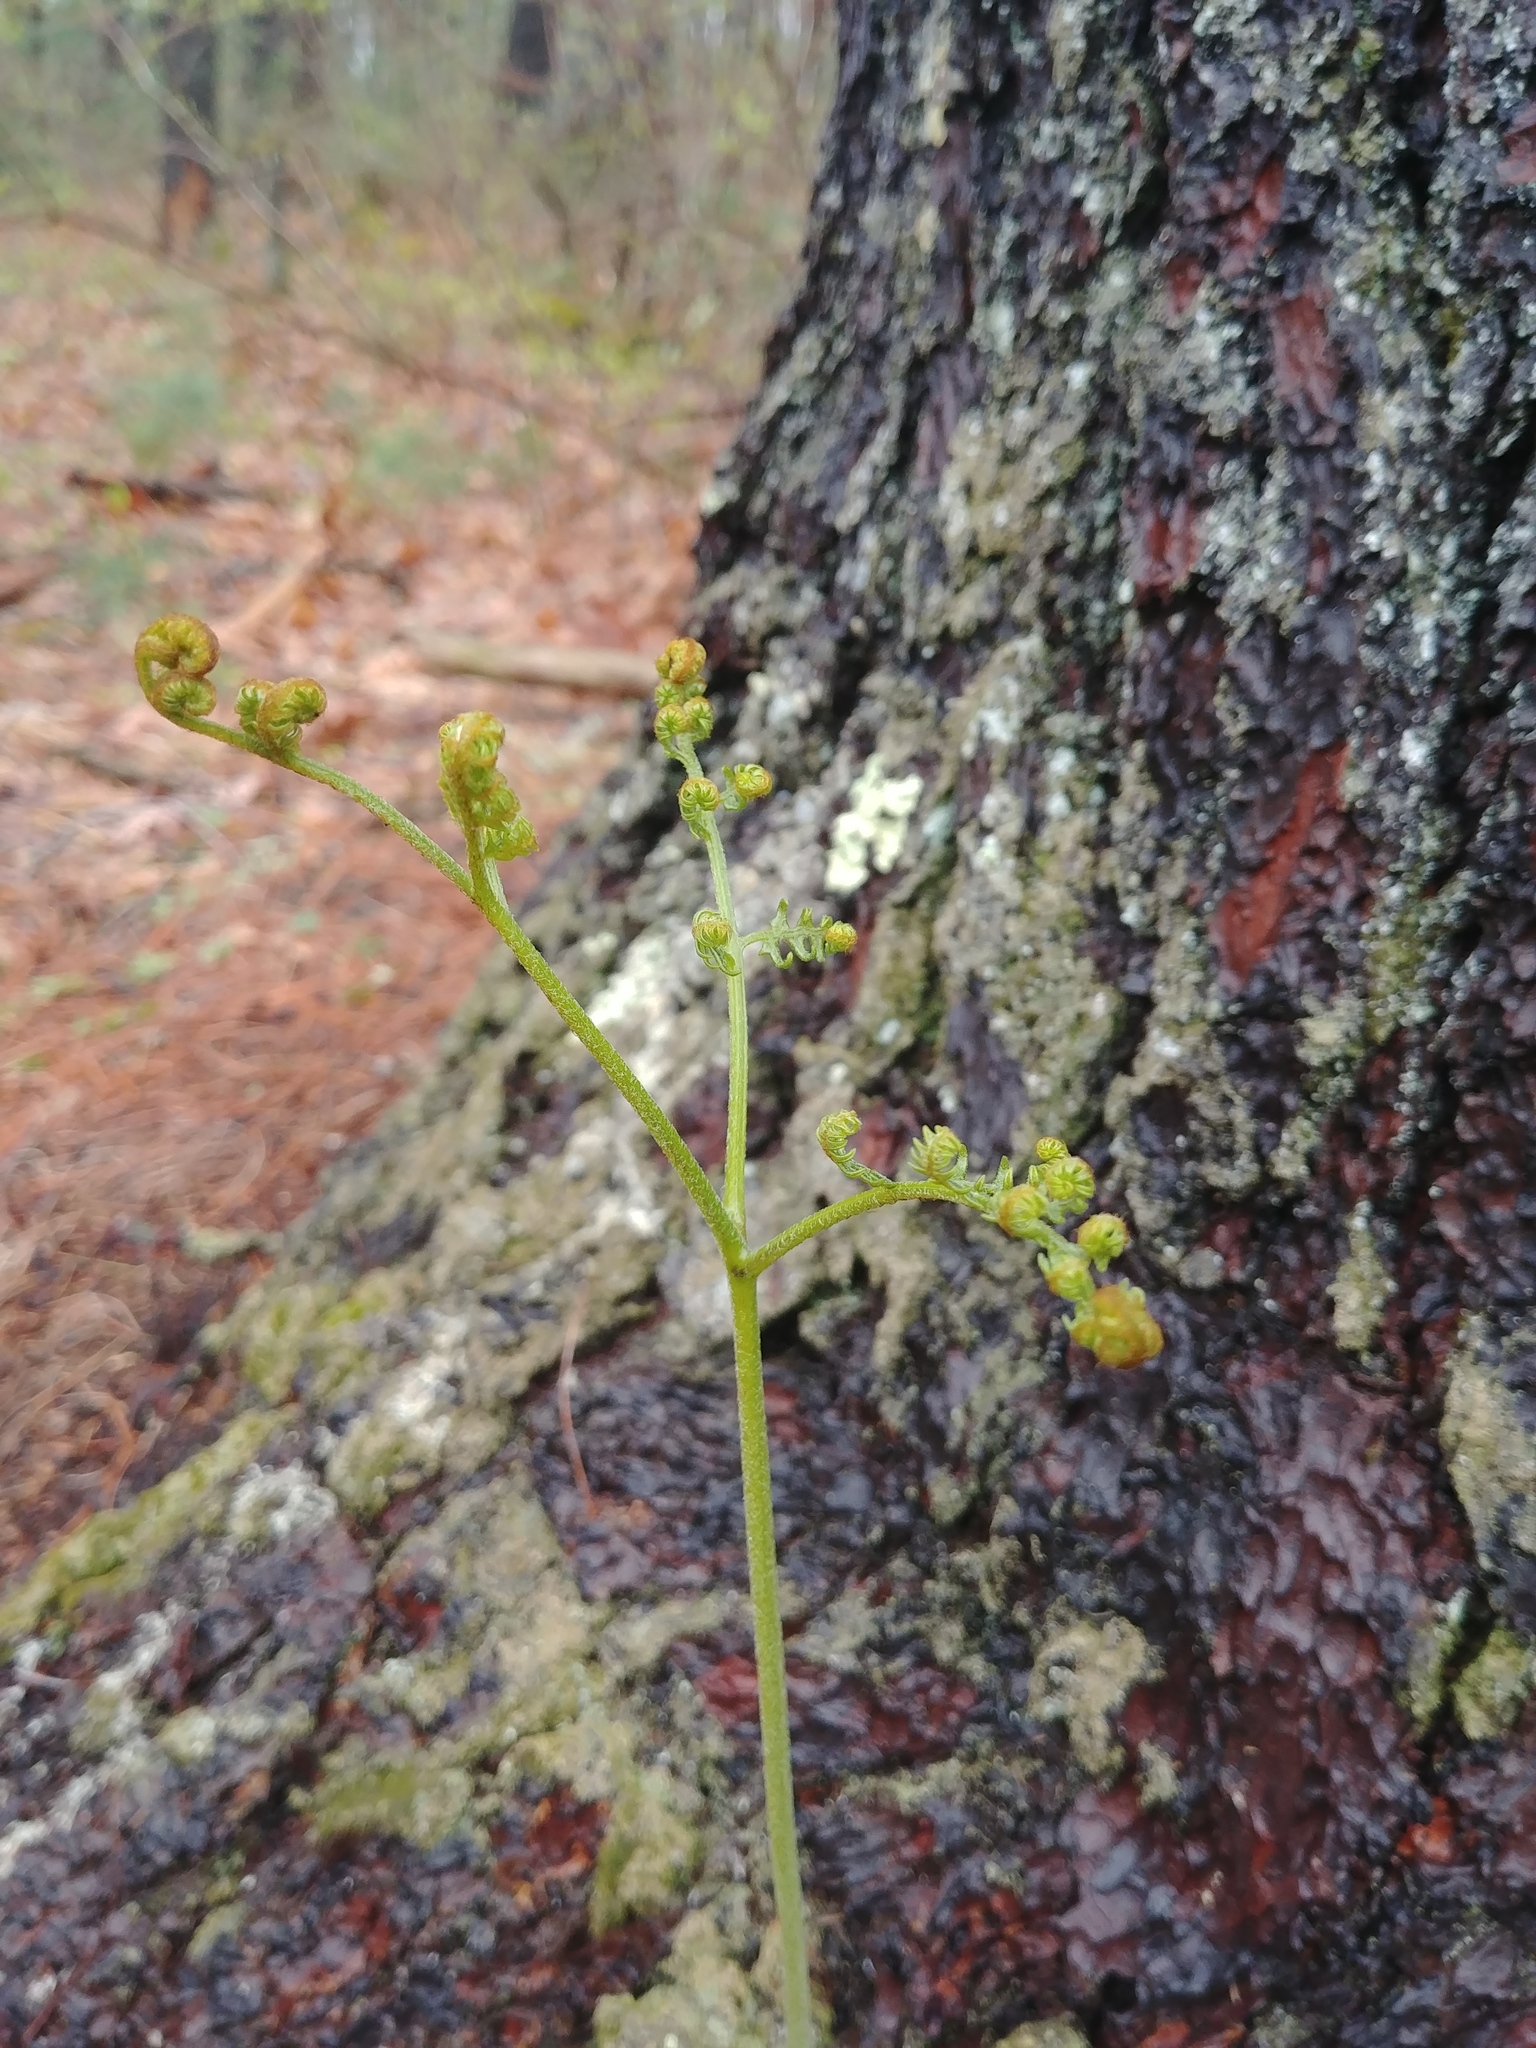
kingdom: Plantae
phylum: Tracheophyta
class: Polypodiopsida
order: Polypodiales
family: Dennstaedtiaceae
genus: Pteridium
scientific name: Pteridium aquilinum
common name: Bracken
